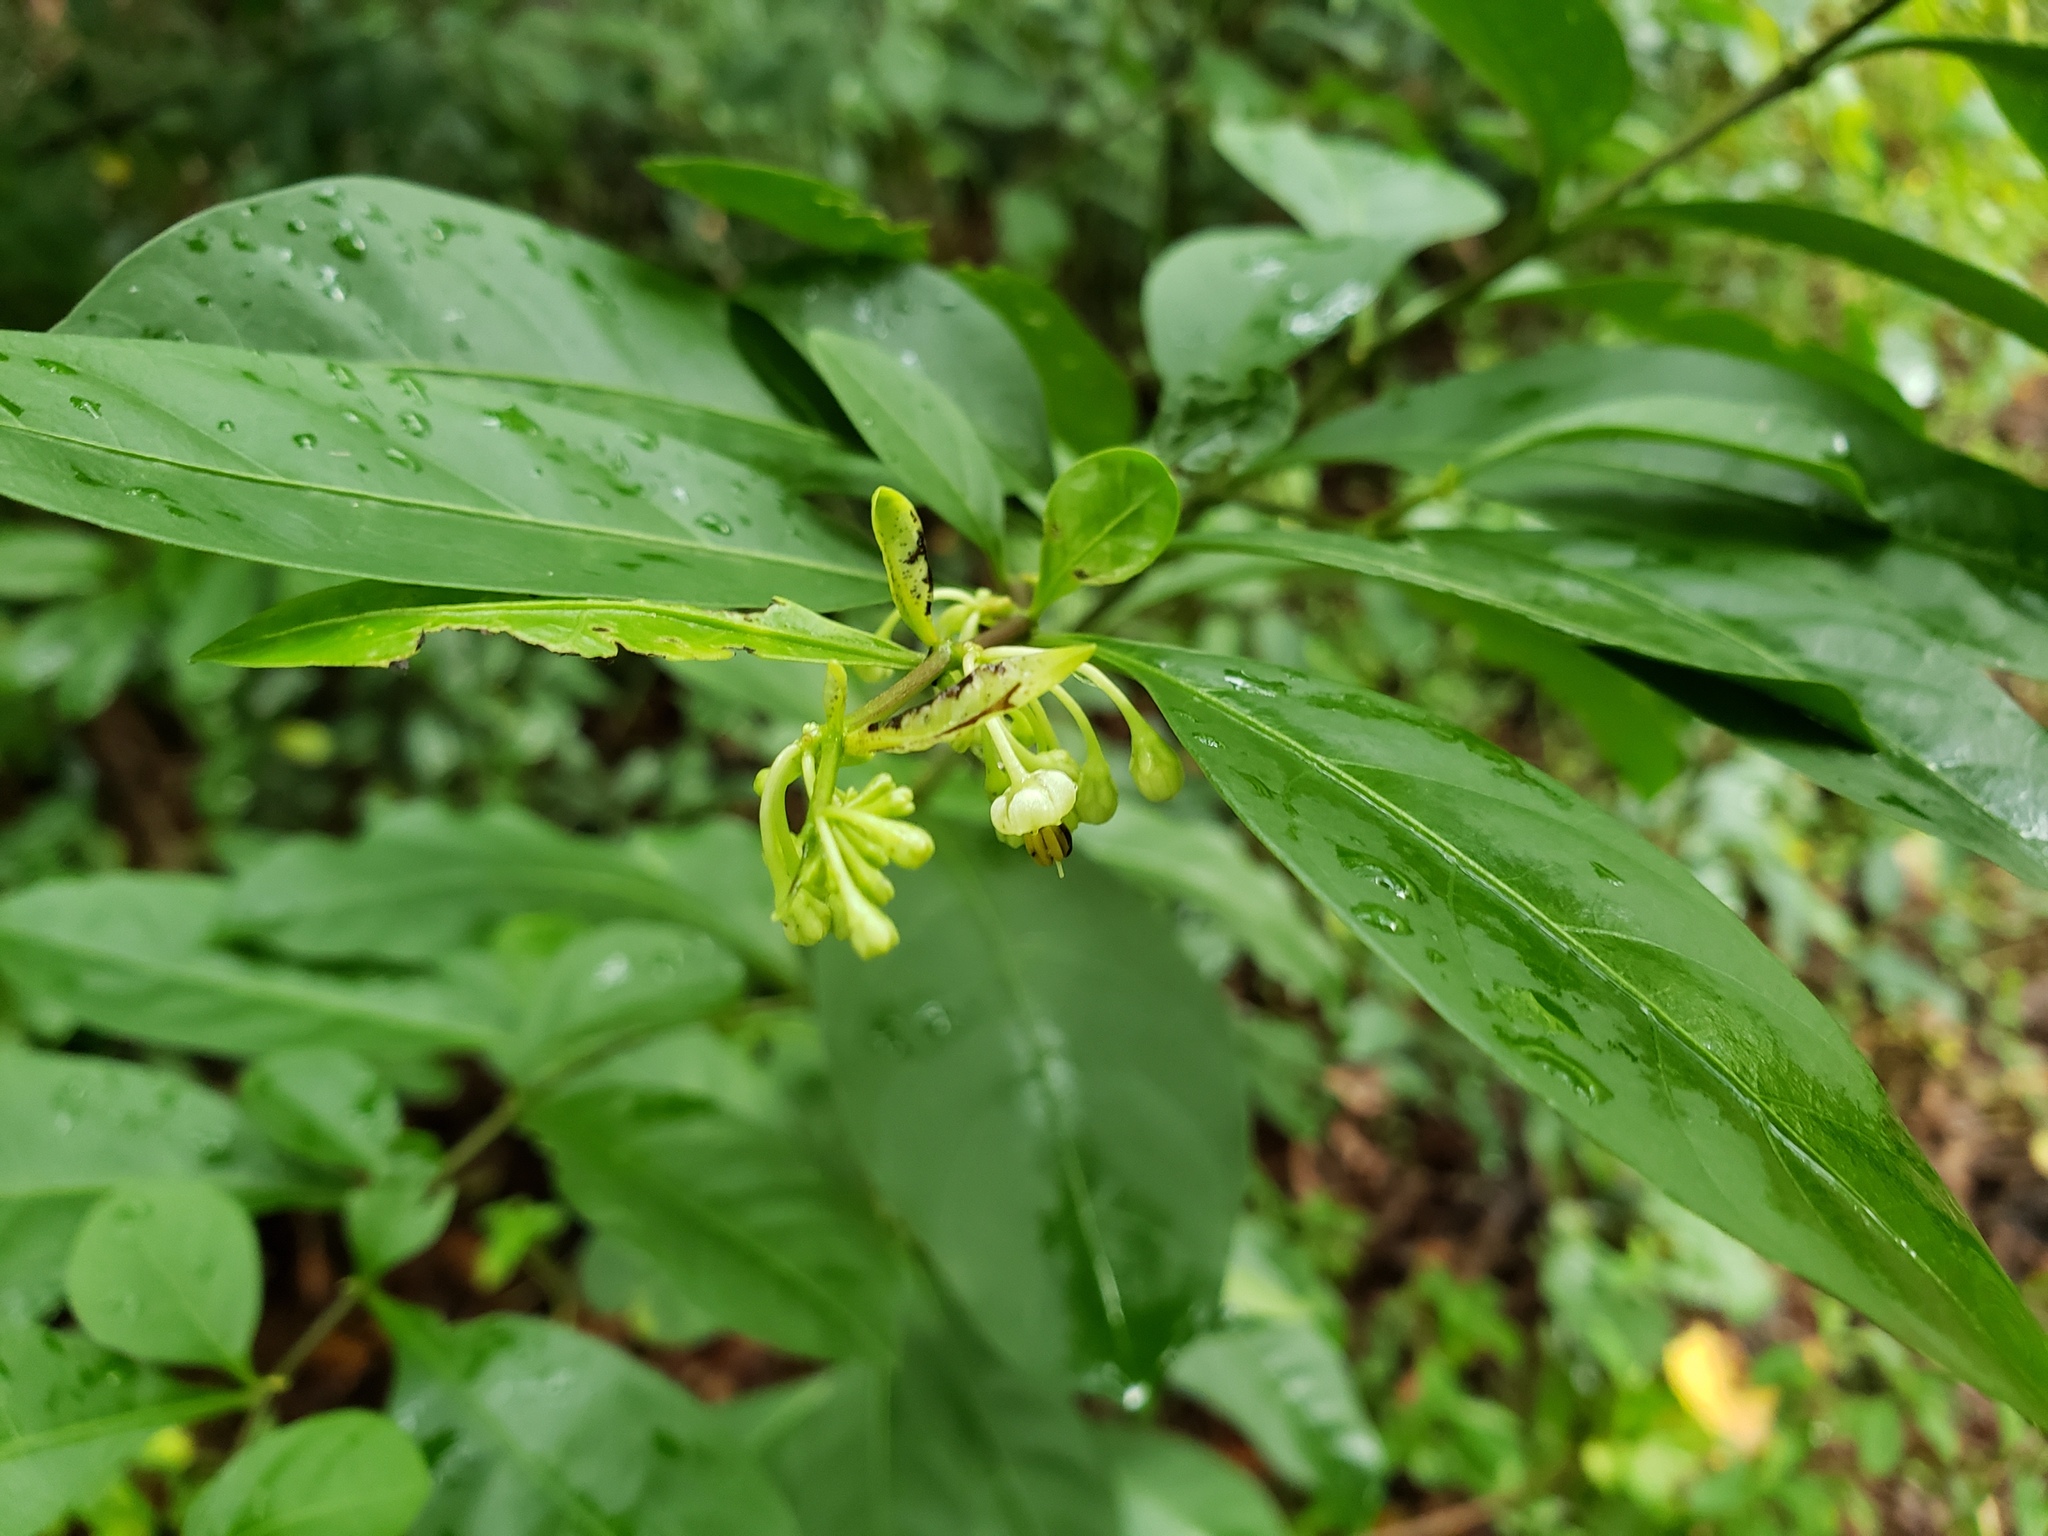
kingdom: Plantae
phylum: Tracheophyta
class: Magnoliopsida
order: Solanales
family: Solanaceae
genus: Solanum
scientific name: Solanum diphyllum
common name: Twoleaf nightshade
